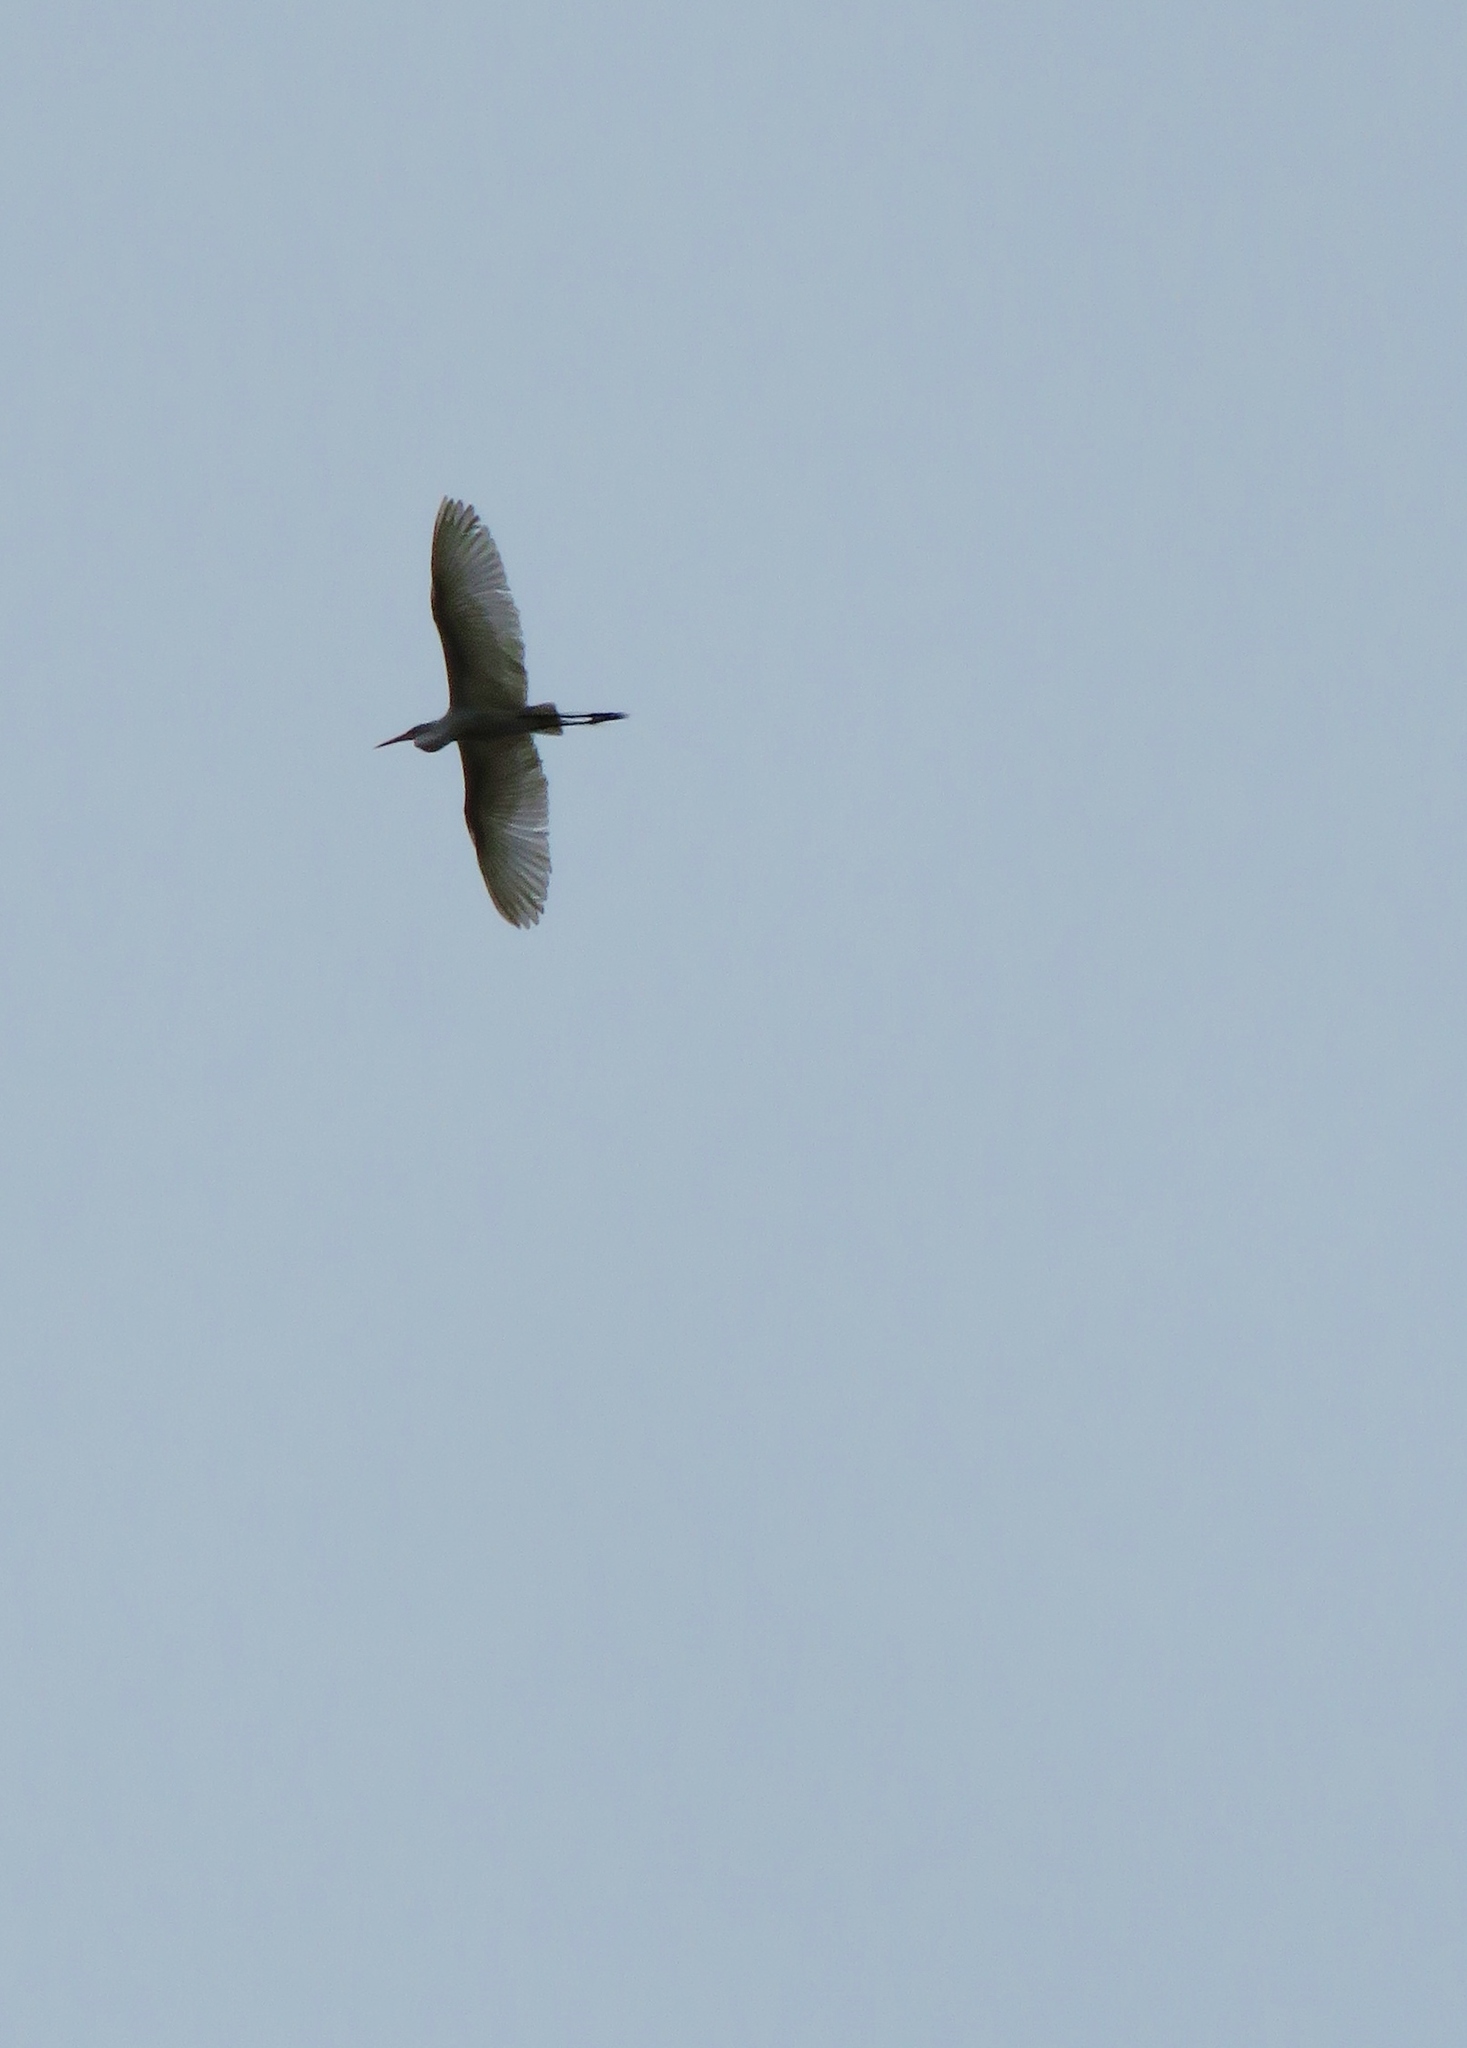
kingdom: Animalia
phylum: Chordata
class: Aves
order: Pelecaniformes
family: Ardeidae
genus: Ardea
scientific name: Ardea alba
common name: Great egret
